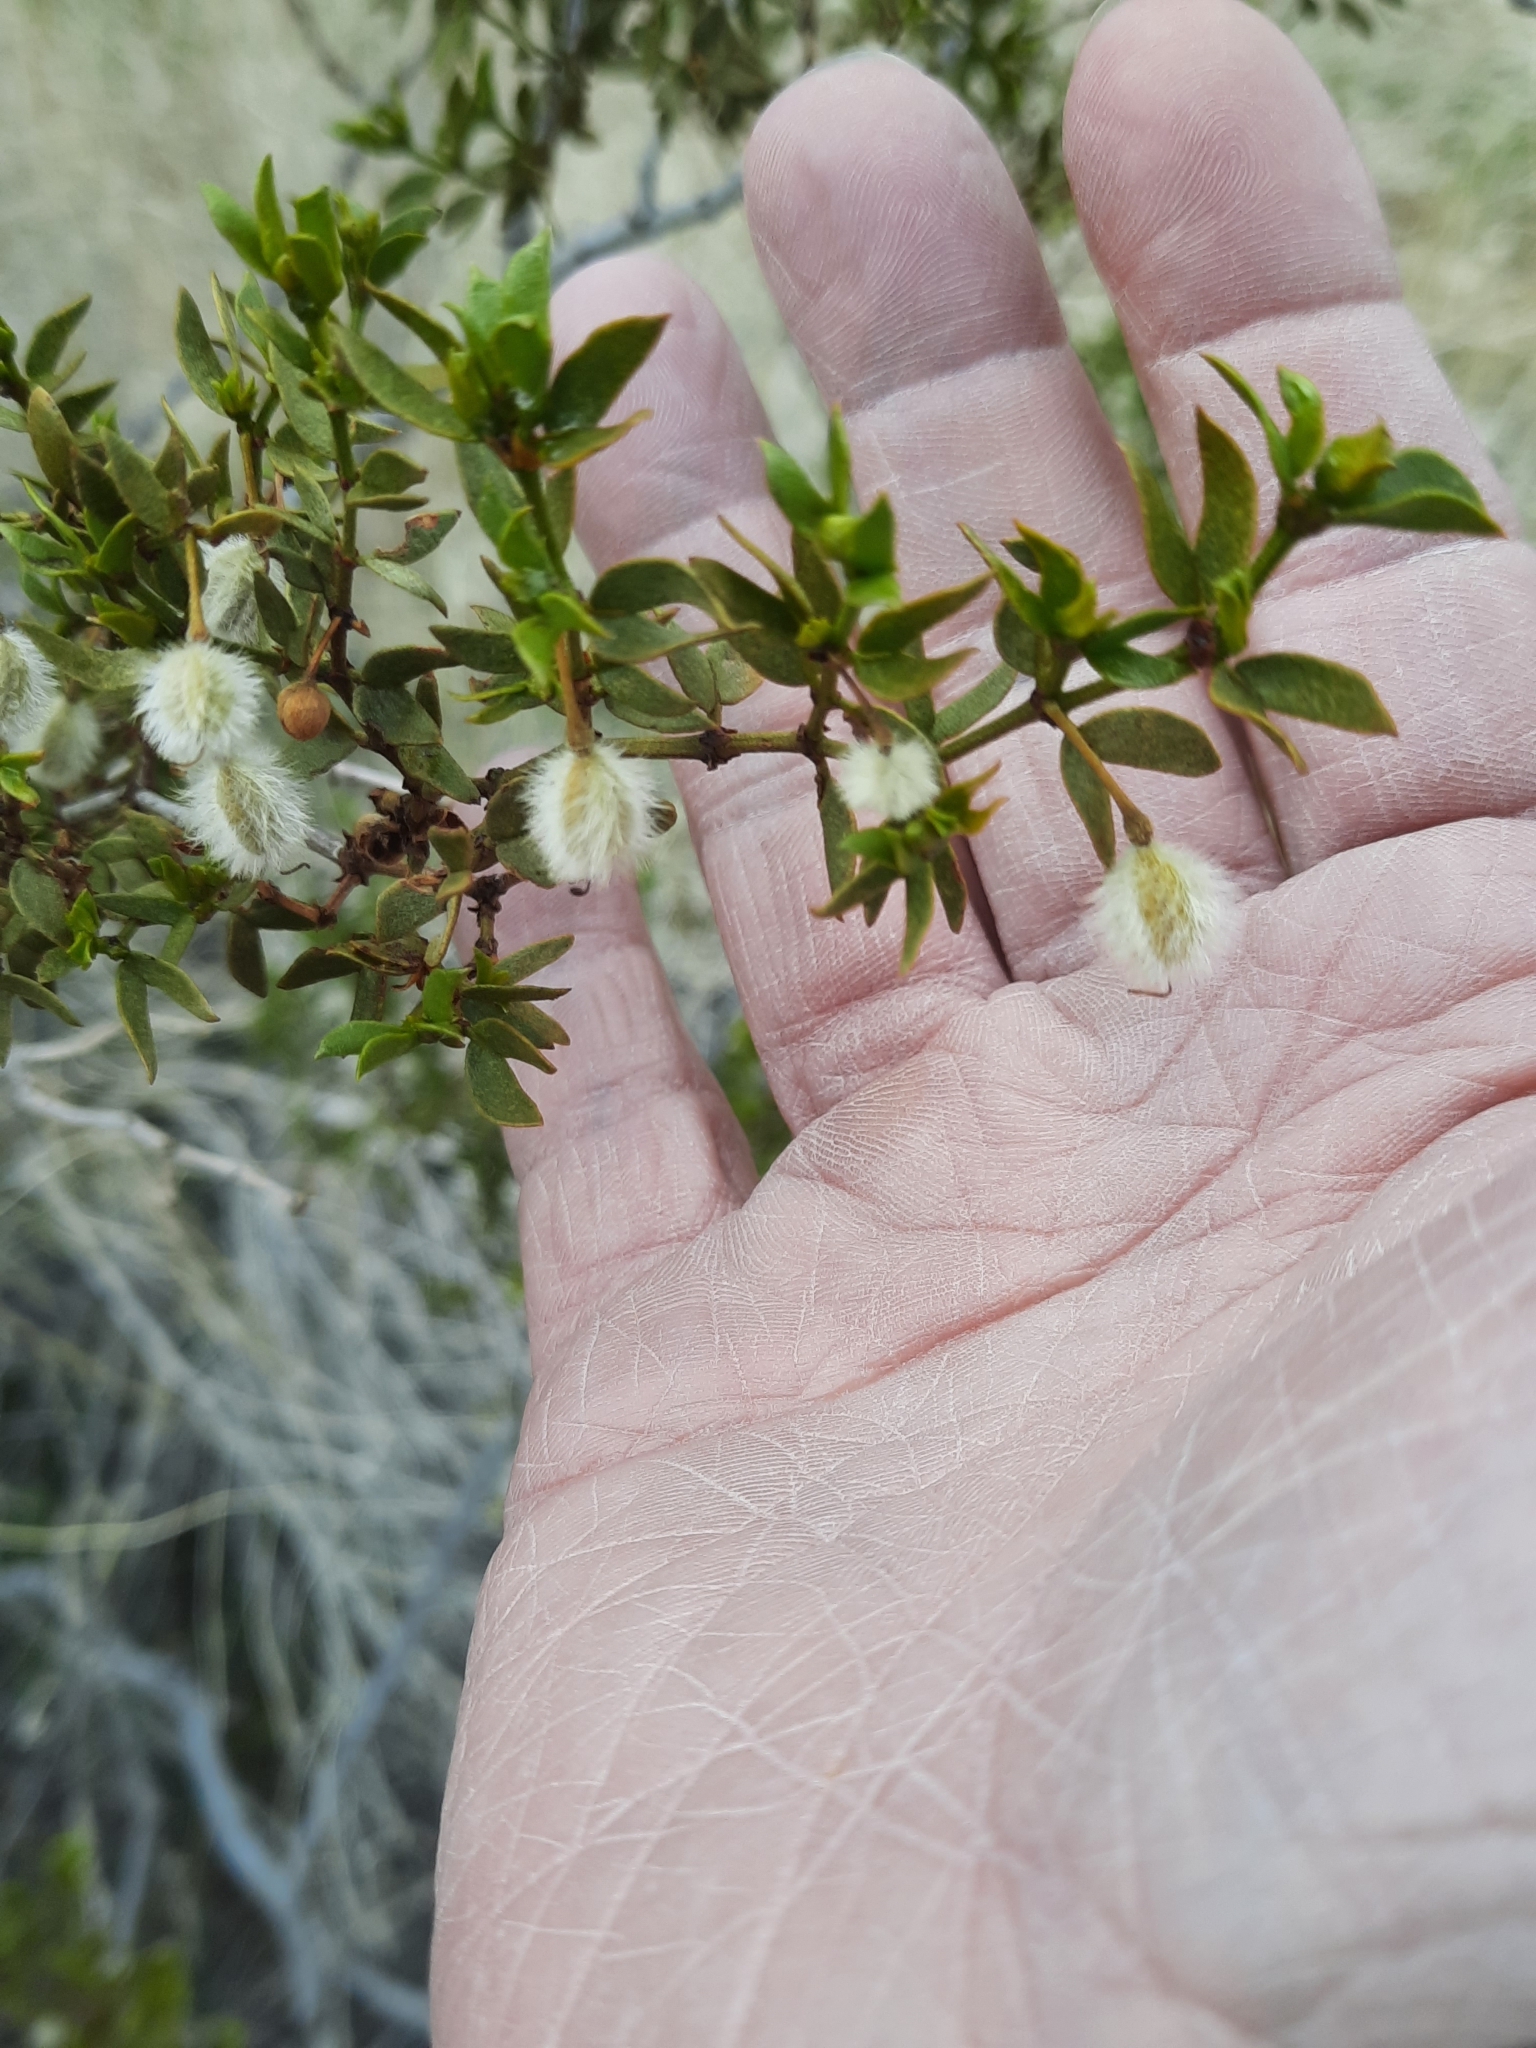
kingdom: Plantae
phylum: Tracheophyta
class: Magnoliopsida
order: Zygophyllales
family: Zygophyllaceae
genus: Larrea
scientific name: Larrea tridentata
